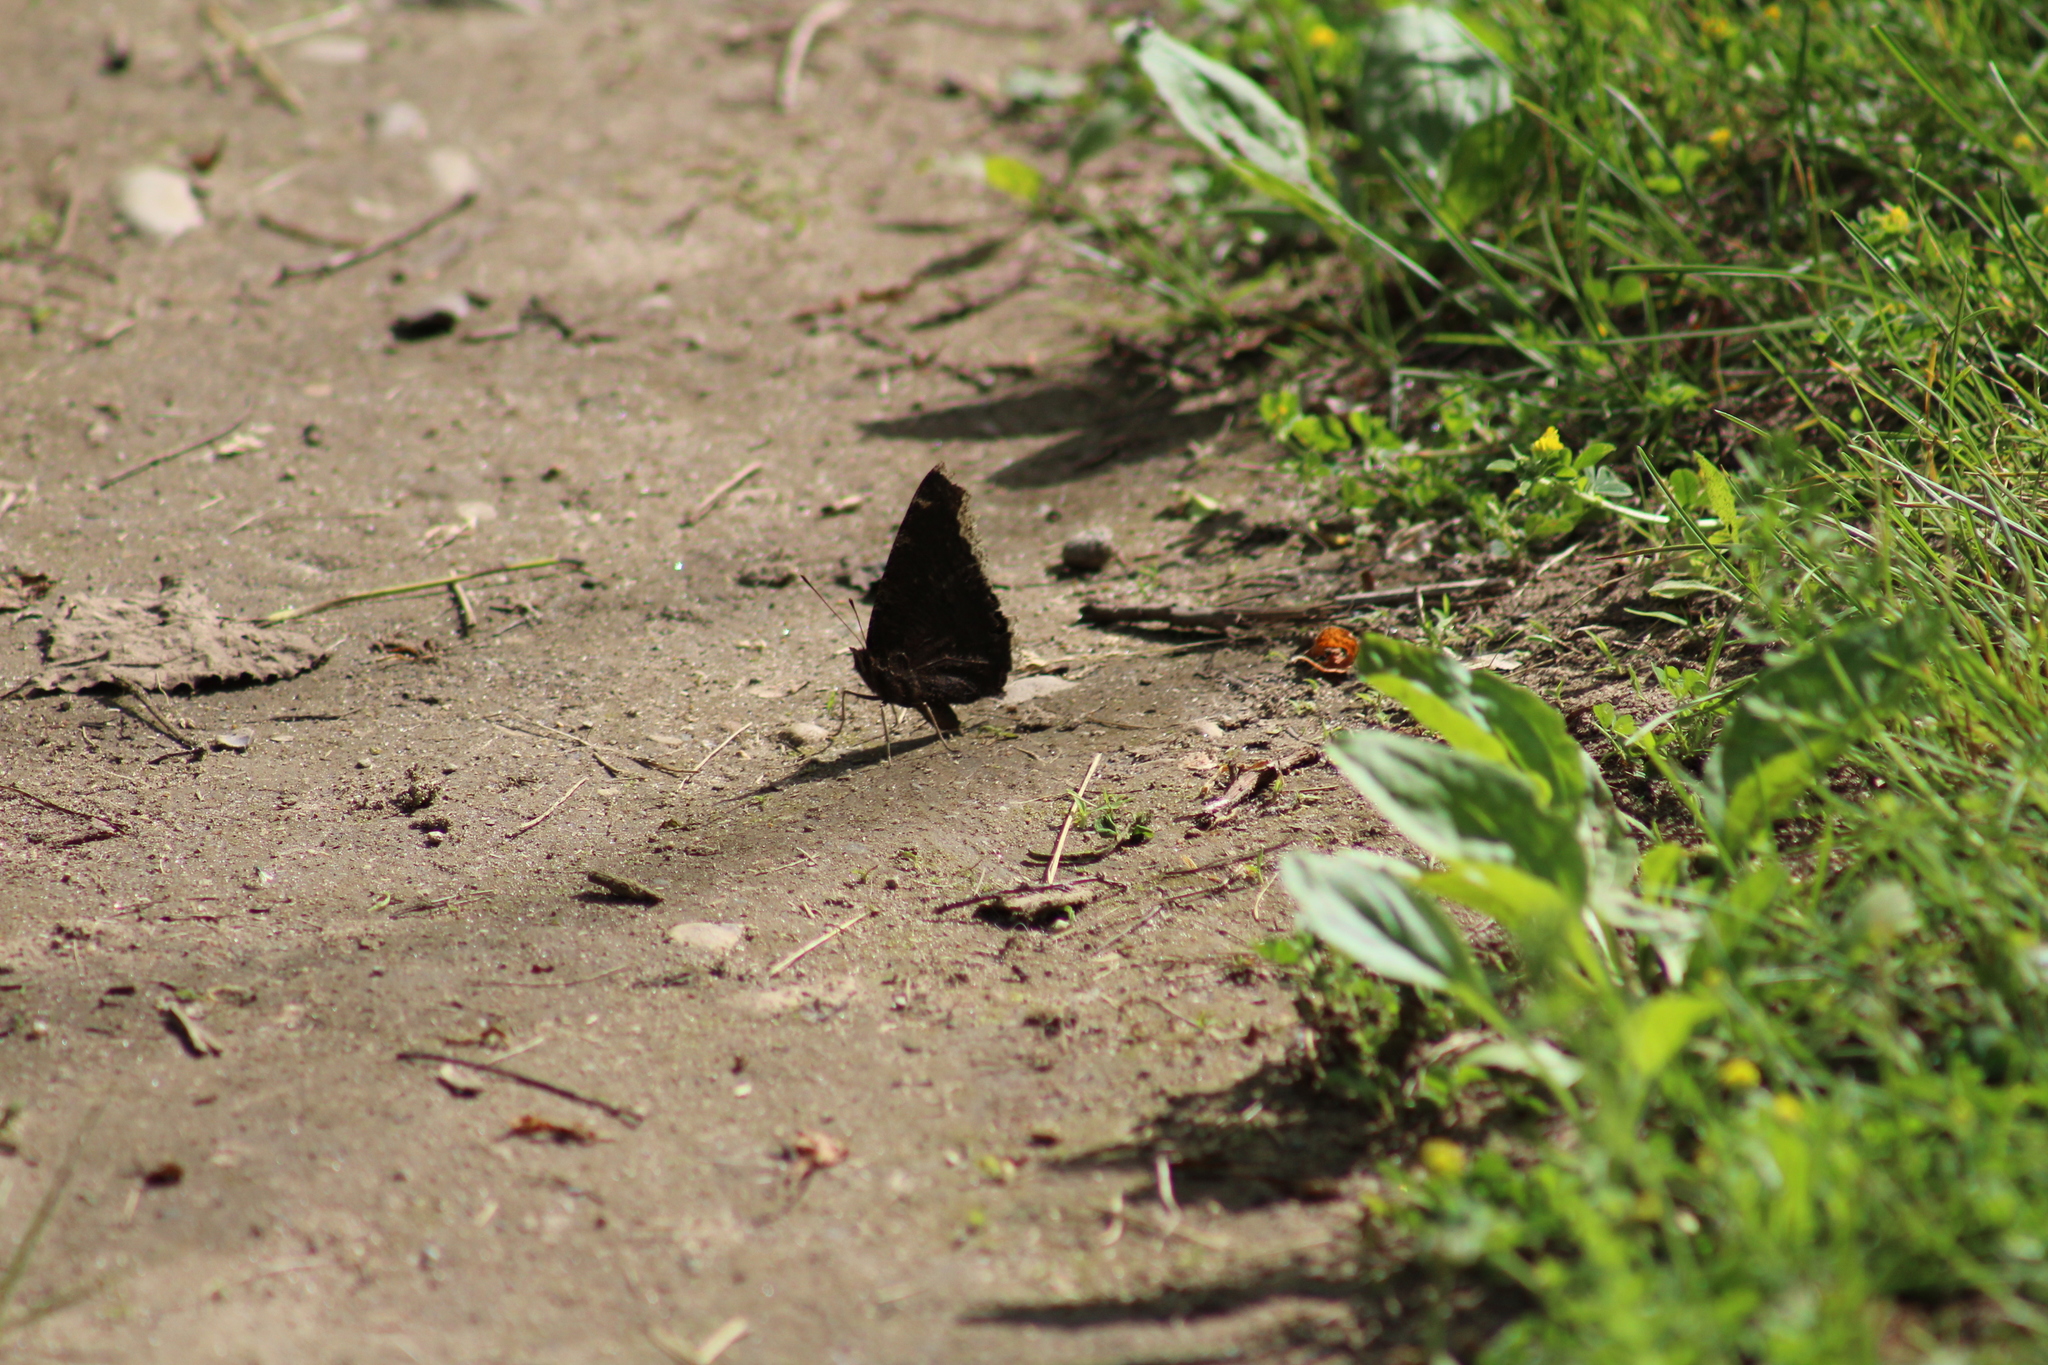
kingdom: Animalia
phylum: Arthropoda
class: Insecta
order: Lepidoptera
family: Nymphalidae
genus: Nymphalis
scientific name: Nymphalis antiopa
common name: Camberwell beauty
